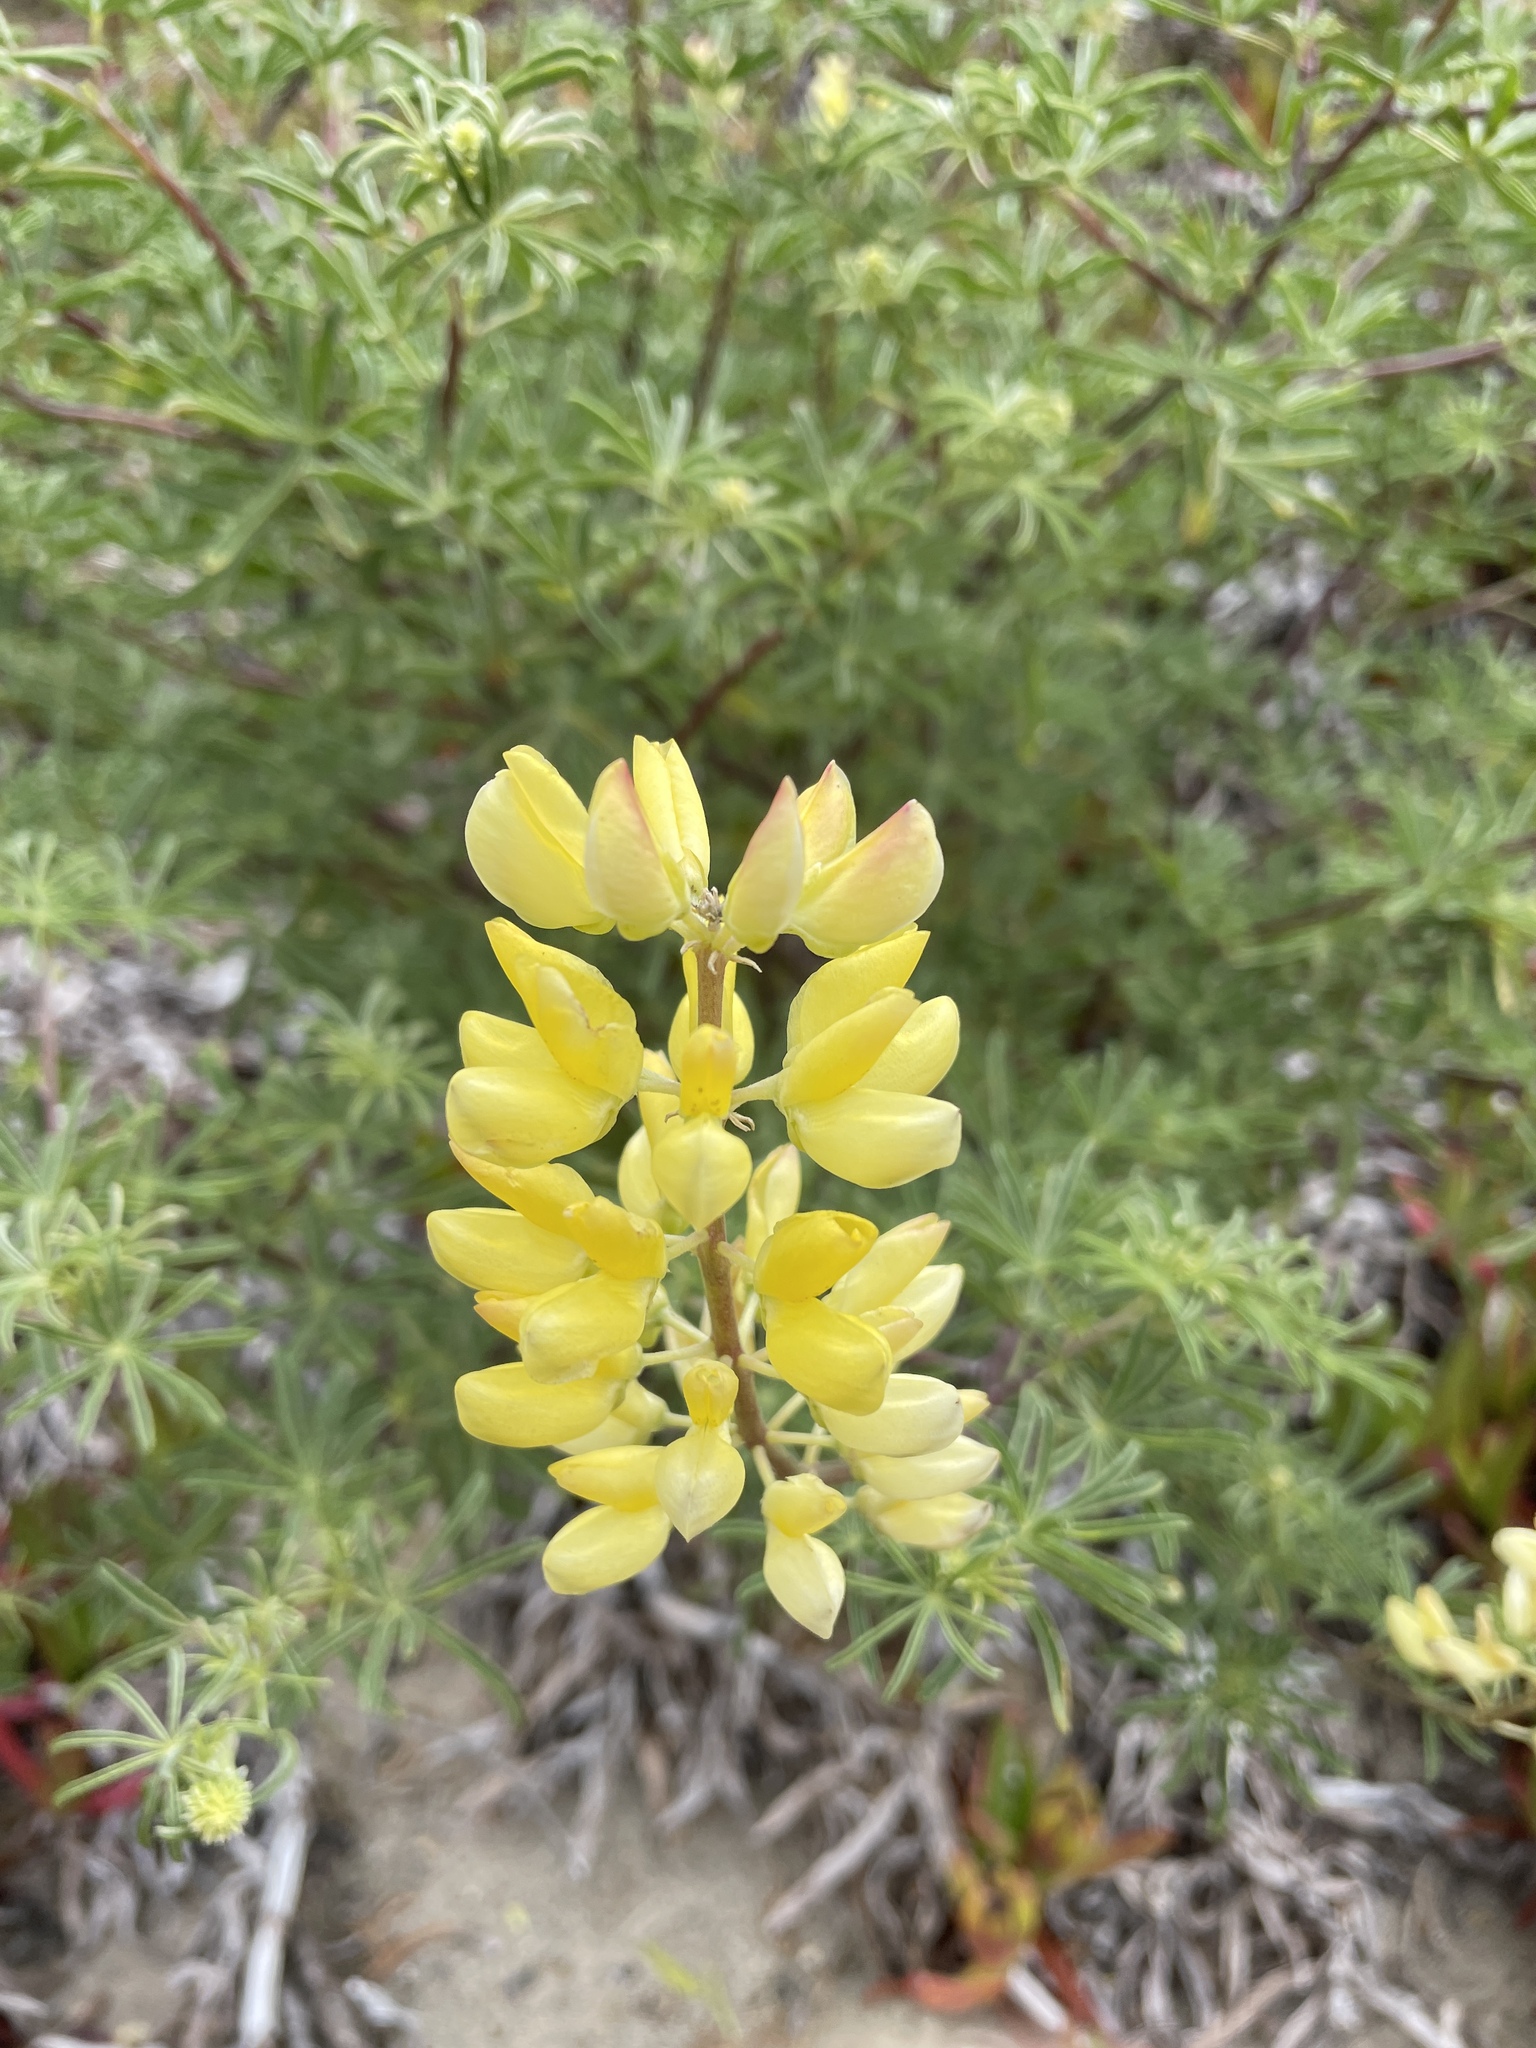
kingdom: Plantae
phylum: Tracheophyta
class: Magnoliopsida
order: Fabales
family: Fabaceae
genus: Lupinus
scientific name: Lupinus arboreus
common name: Yellow bush lupine
